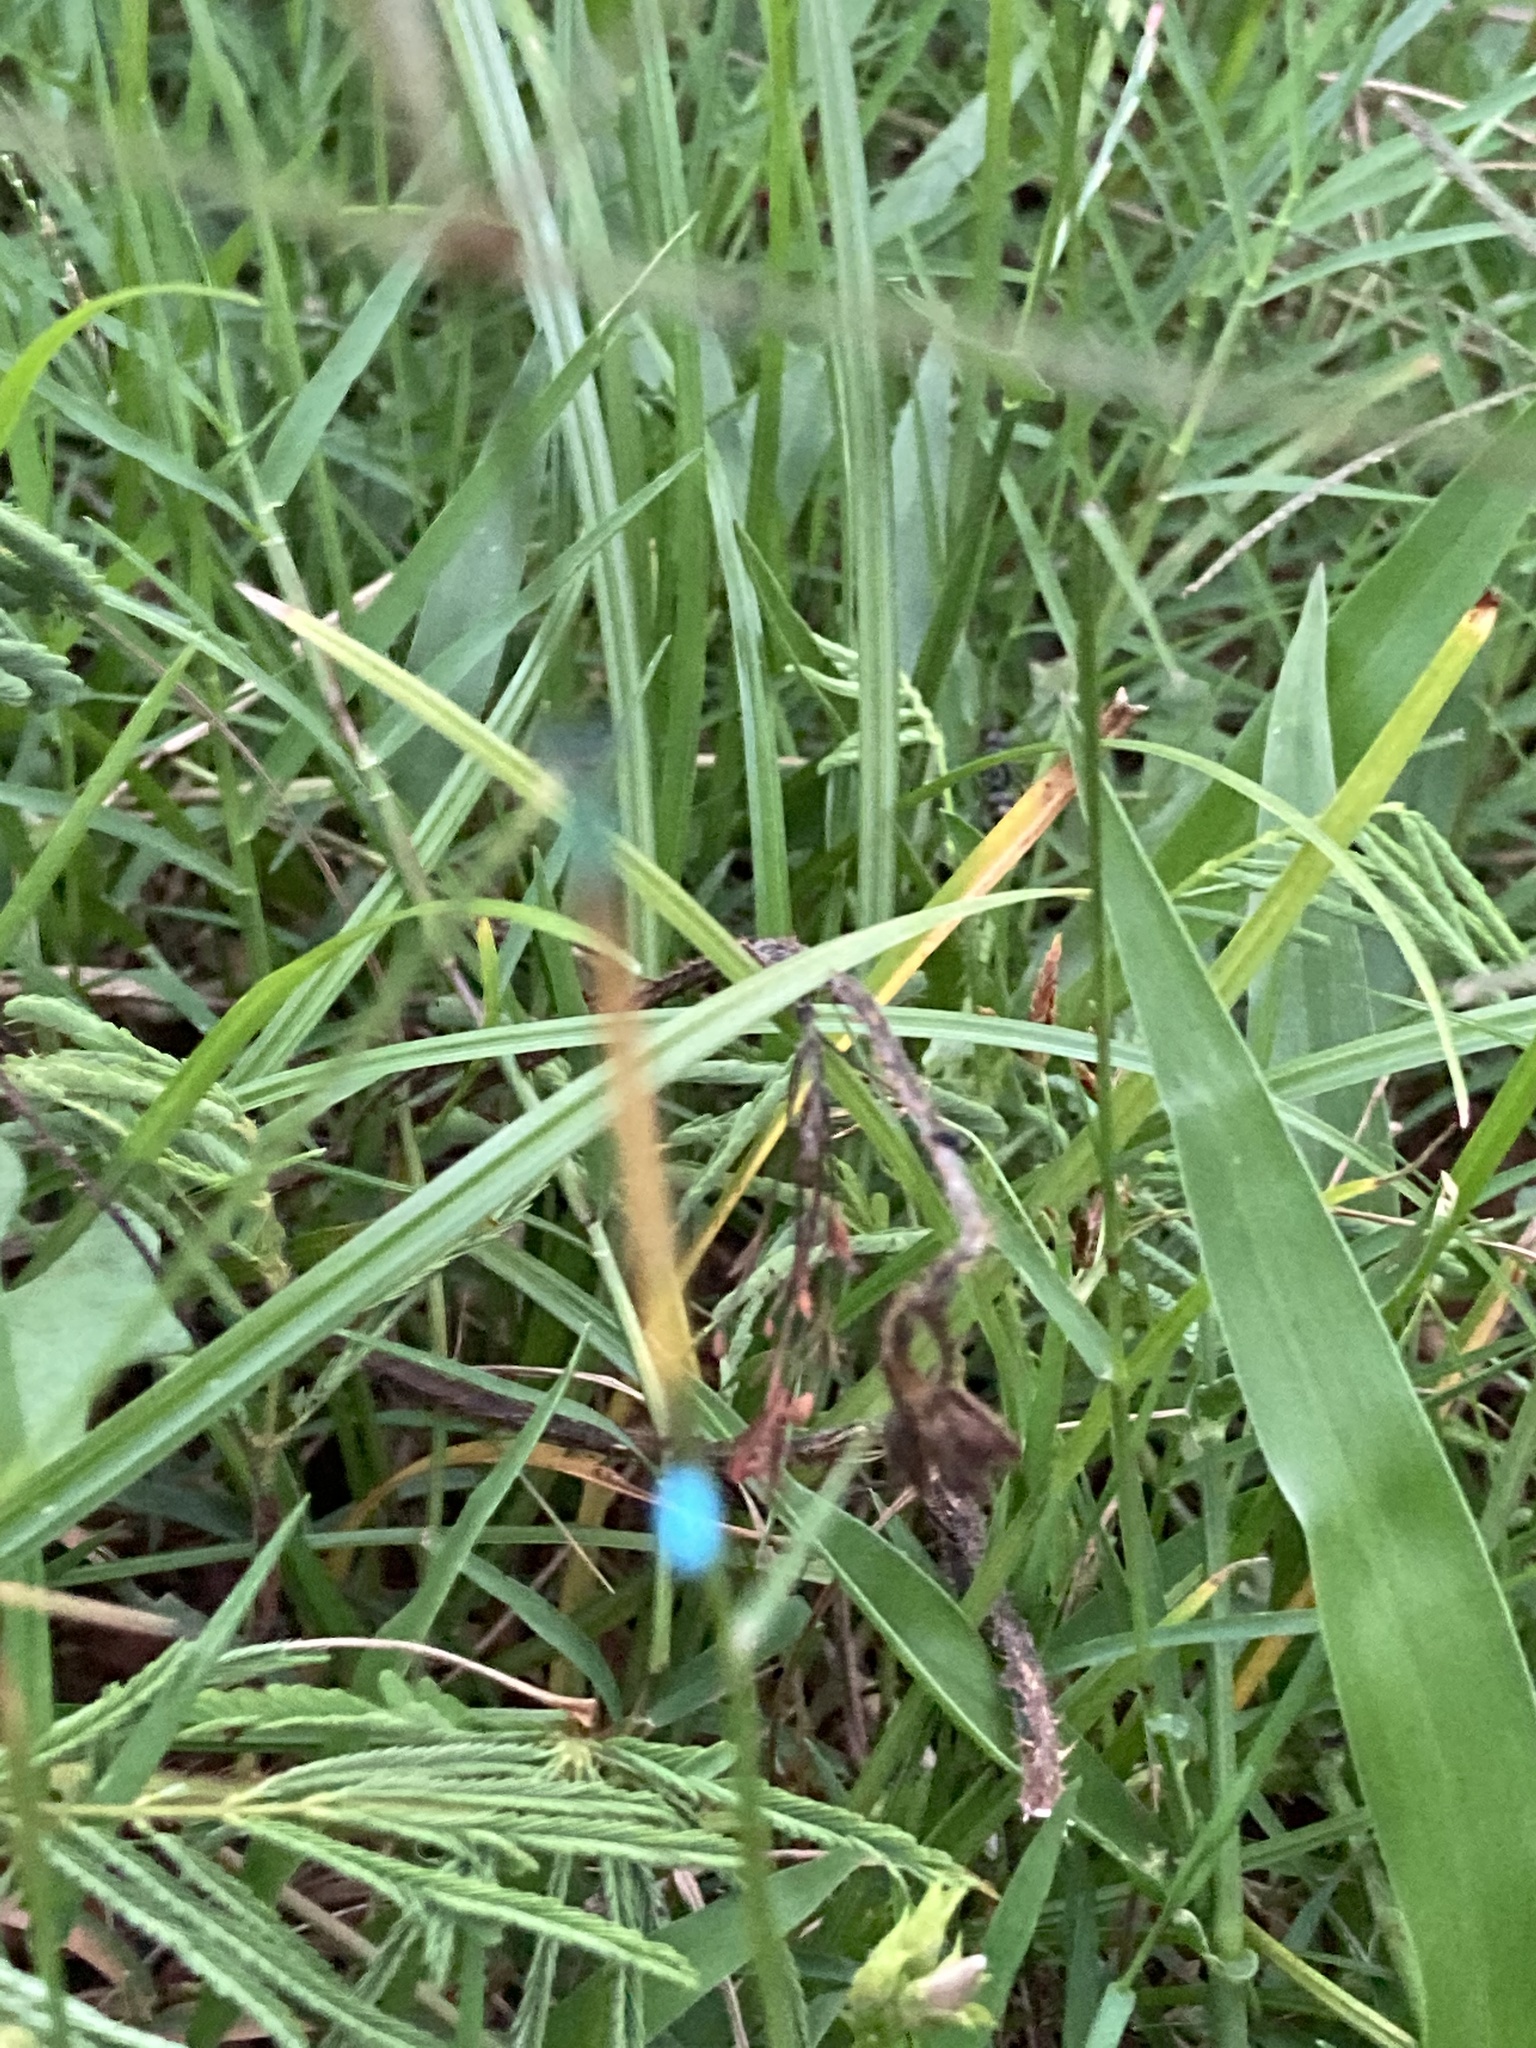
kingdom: Animalia
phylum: Arthropoda
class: Insecta
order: Odonata
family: Coenagrionidae
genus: Ischnura
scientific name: Ischnura rubilio
